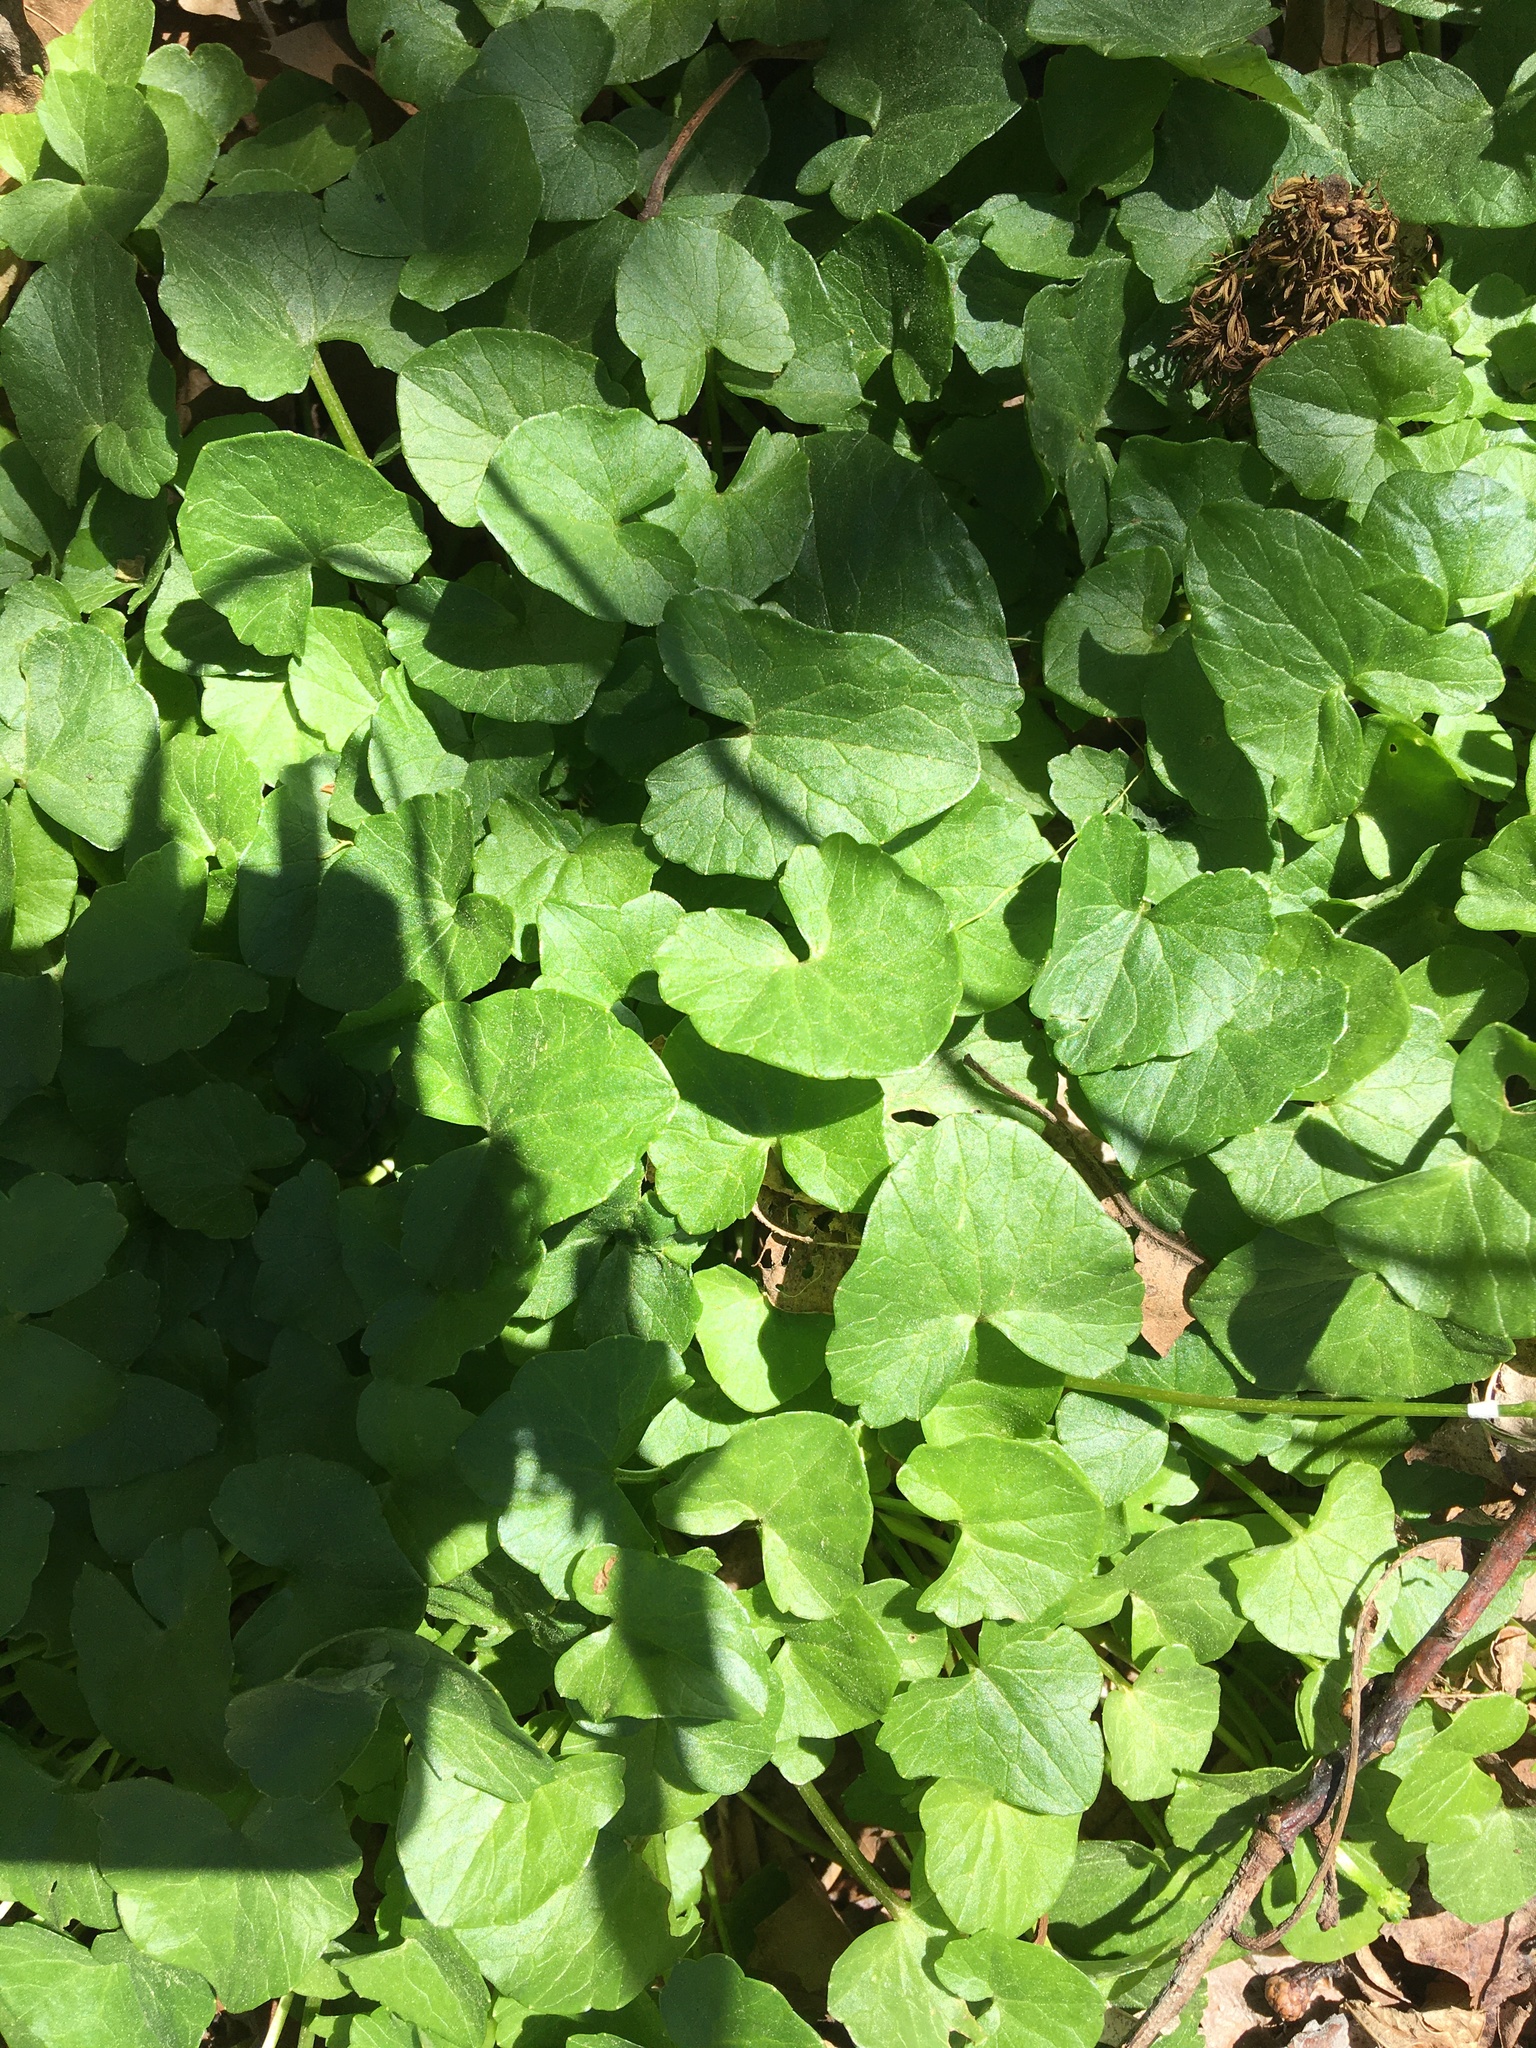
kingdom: Plantae
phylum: Tracheophyta
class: Magnoliopsida
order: Ranunculales
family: Ranunculaceae
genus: Ficaria
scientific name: Ficaria verna
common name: Lesser celandine
